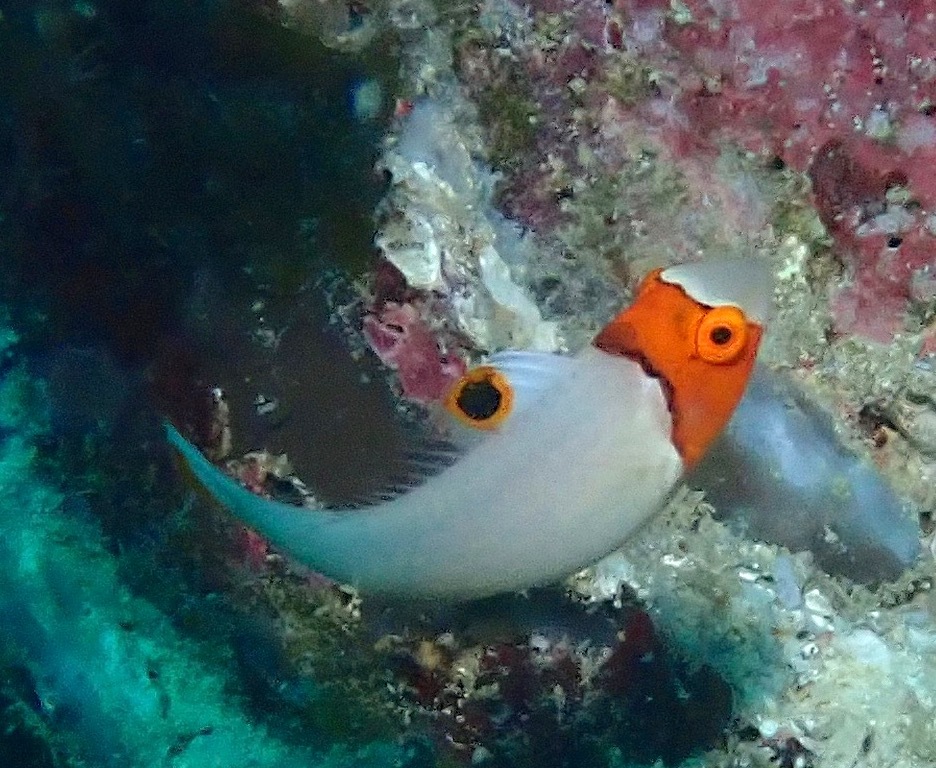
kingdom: Animalia
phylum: Chordata
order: Perciformes
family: Scaridae
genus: Cetoscarus
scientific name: Cetoscarus ocellatus
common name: Bicolor parrotfish
